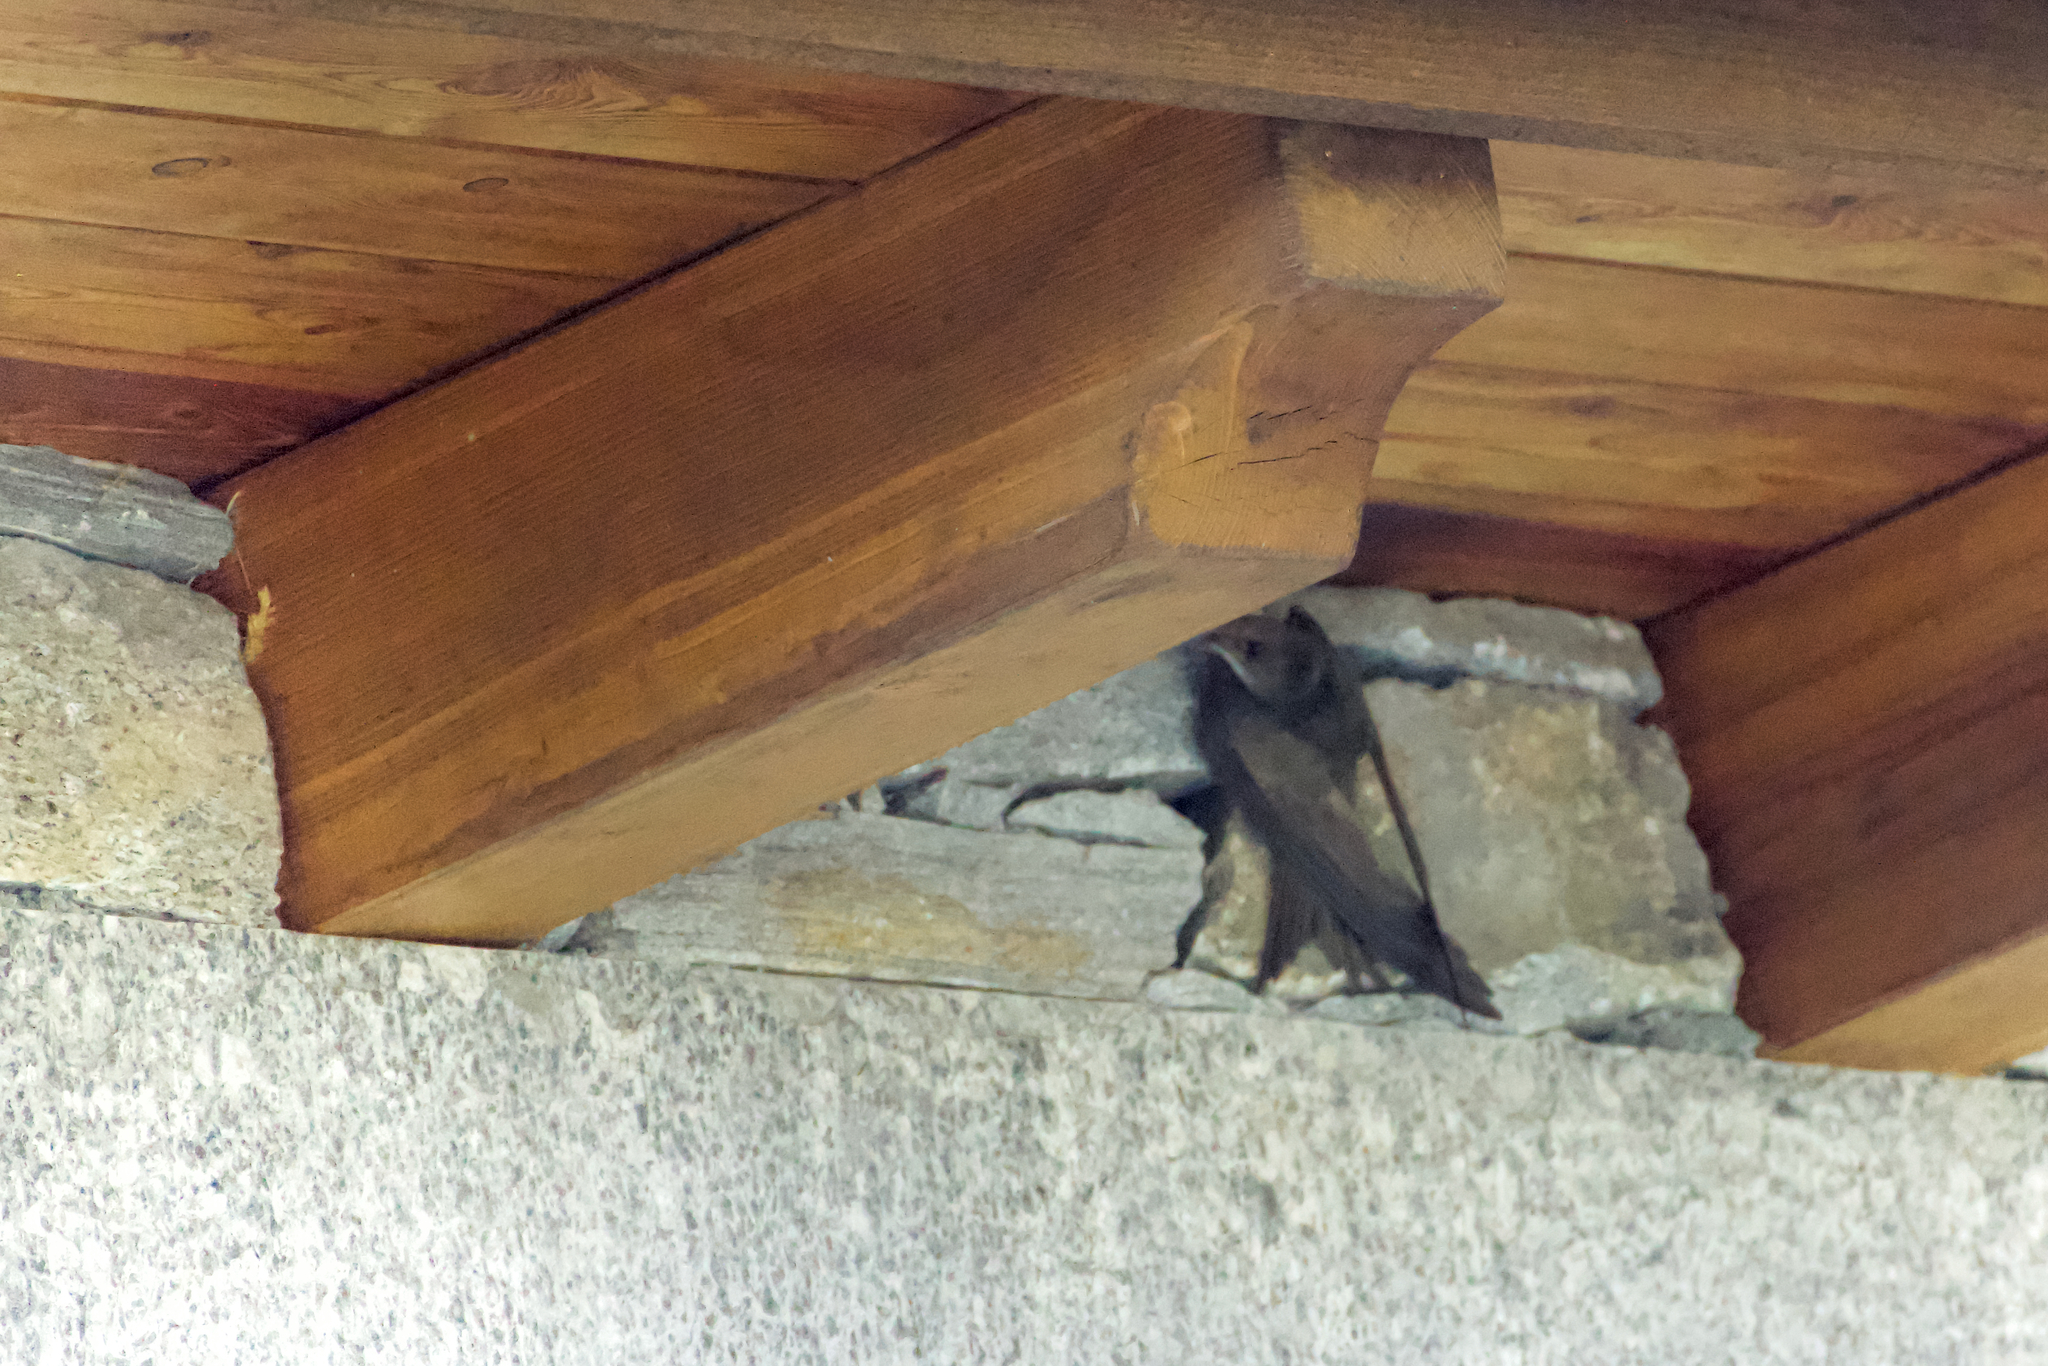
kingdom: Animalia
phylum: Chordata
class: Aves
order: Apodiformes
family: Apodidae
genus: Apus
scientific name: Apus apus
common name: Common swift
